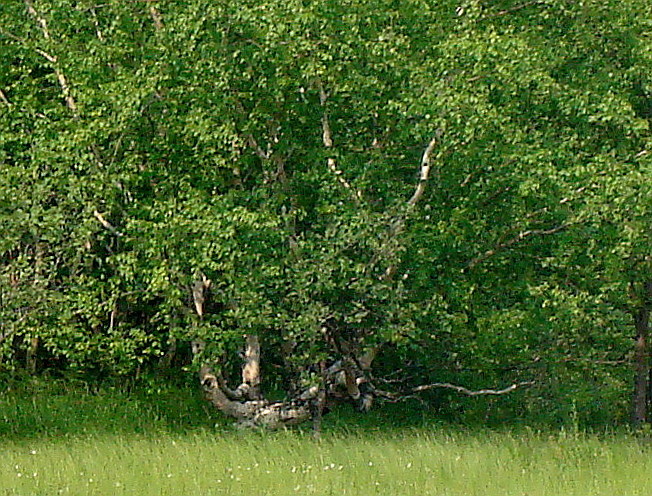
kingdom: Plantae
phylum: Tracheophyta
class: Magnoliopsida
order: Fagales
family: Betulaceae
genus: Betula
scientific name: Betula ermanii
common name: Erman's birch
